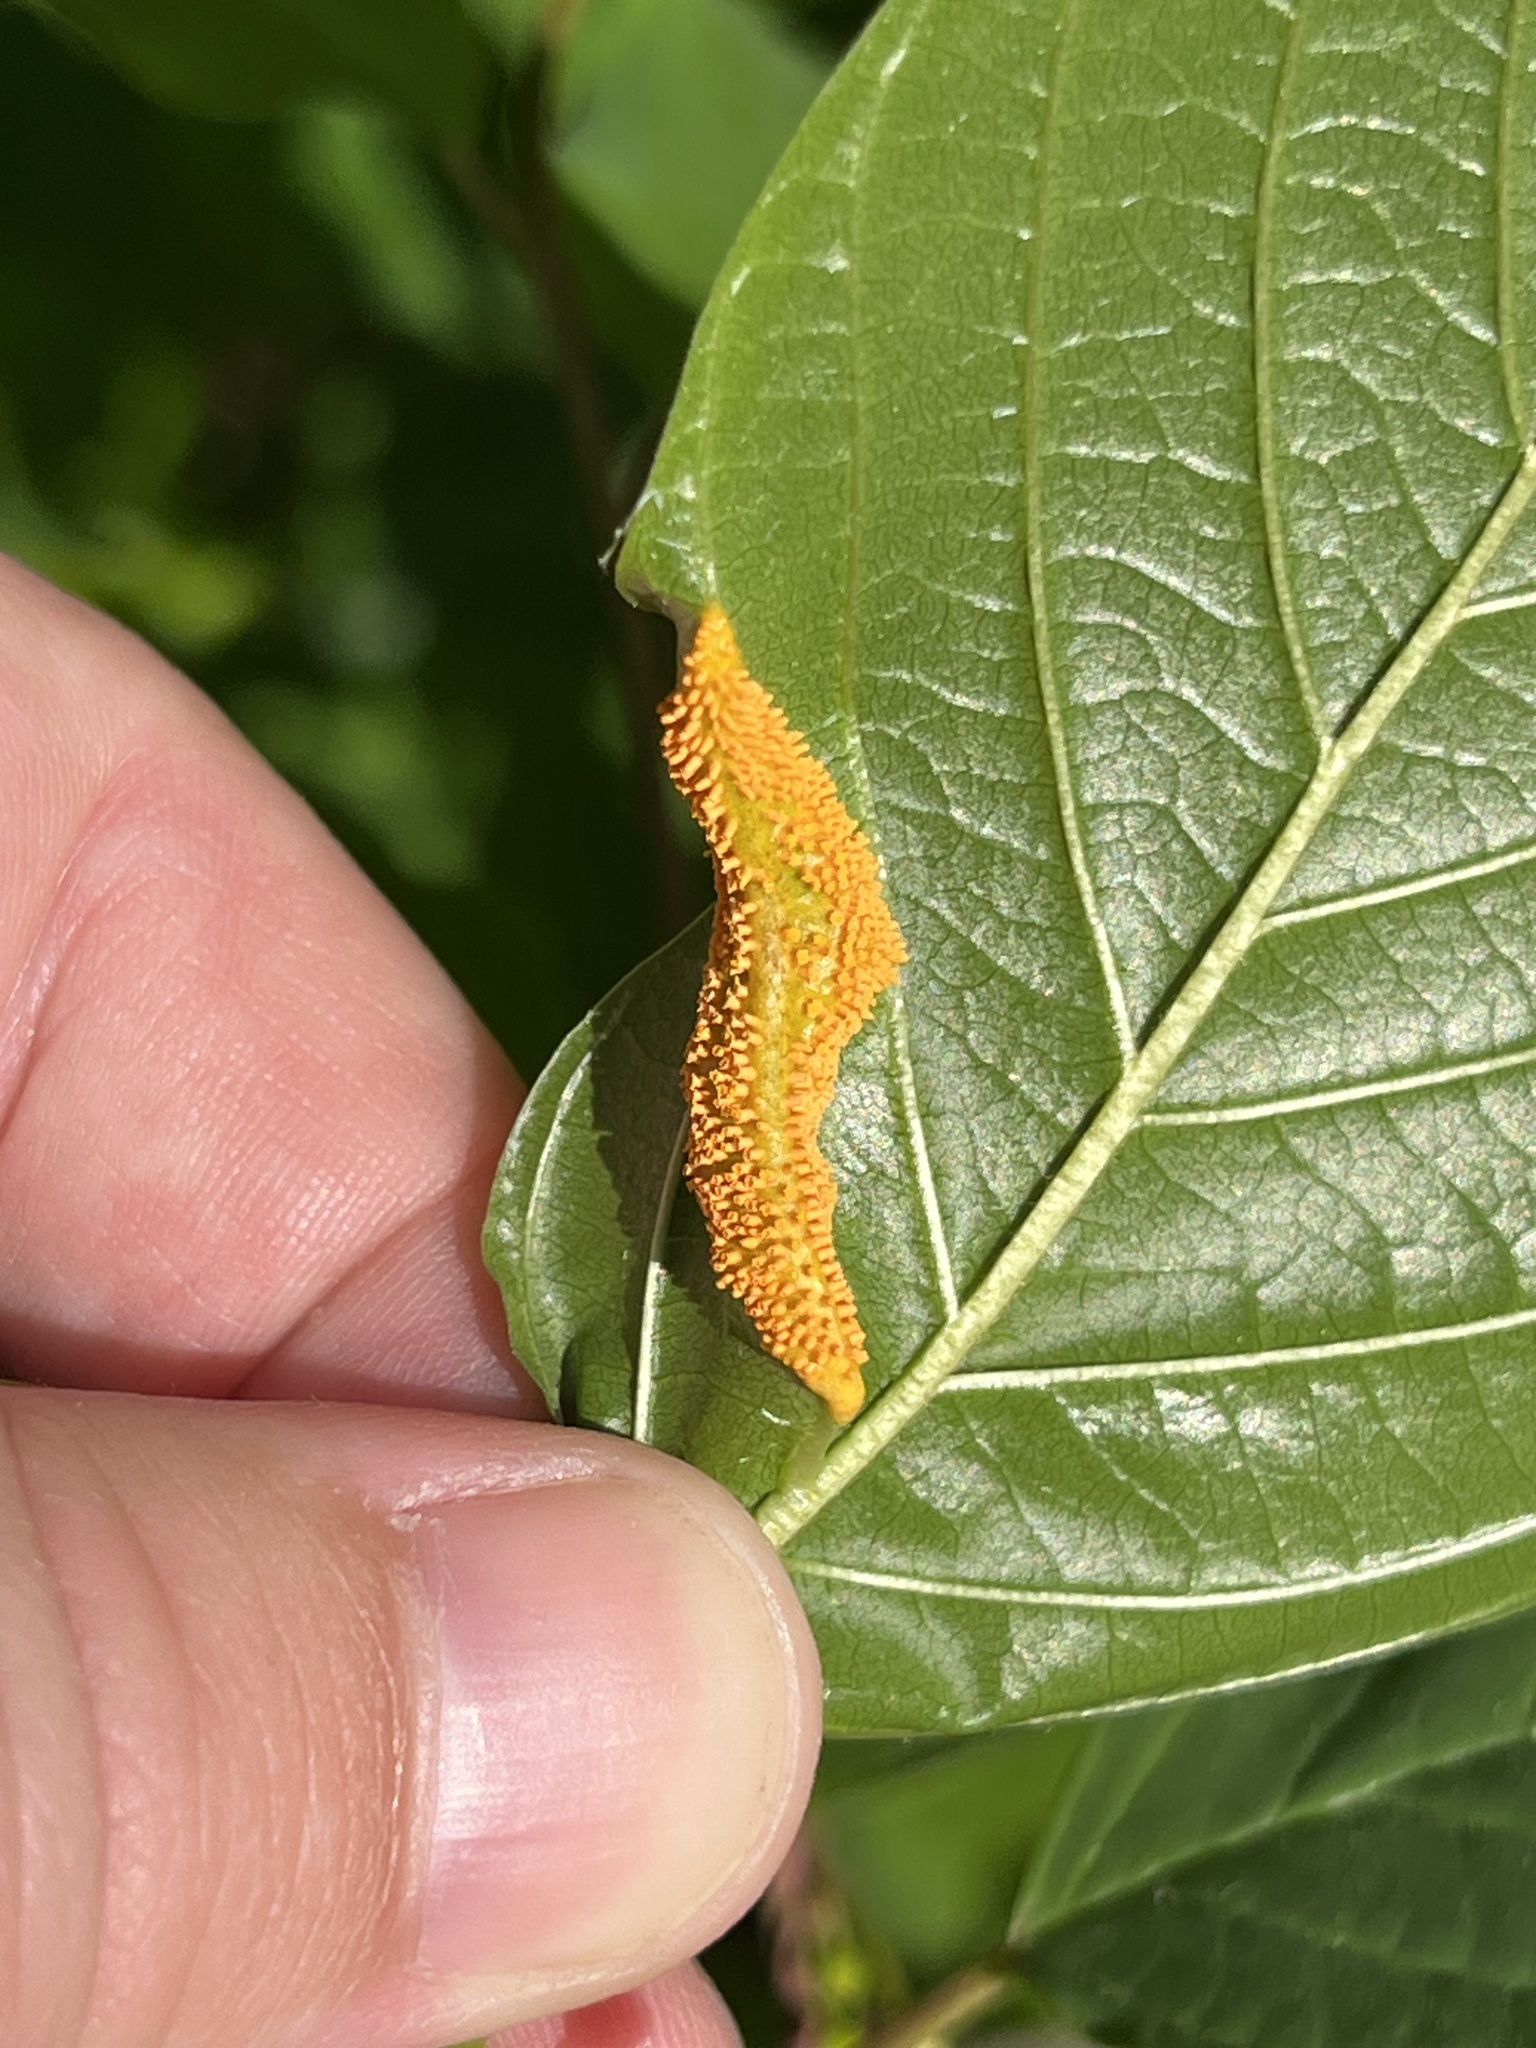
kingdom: Fungi
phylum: Basidiomycota
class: Pucciniomycetes
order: Pucciniales
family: Pucciniaceae
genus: Puccinia
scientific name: Puccinia coronata
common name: Crown rust
